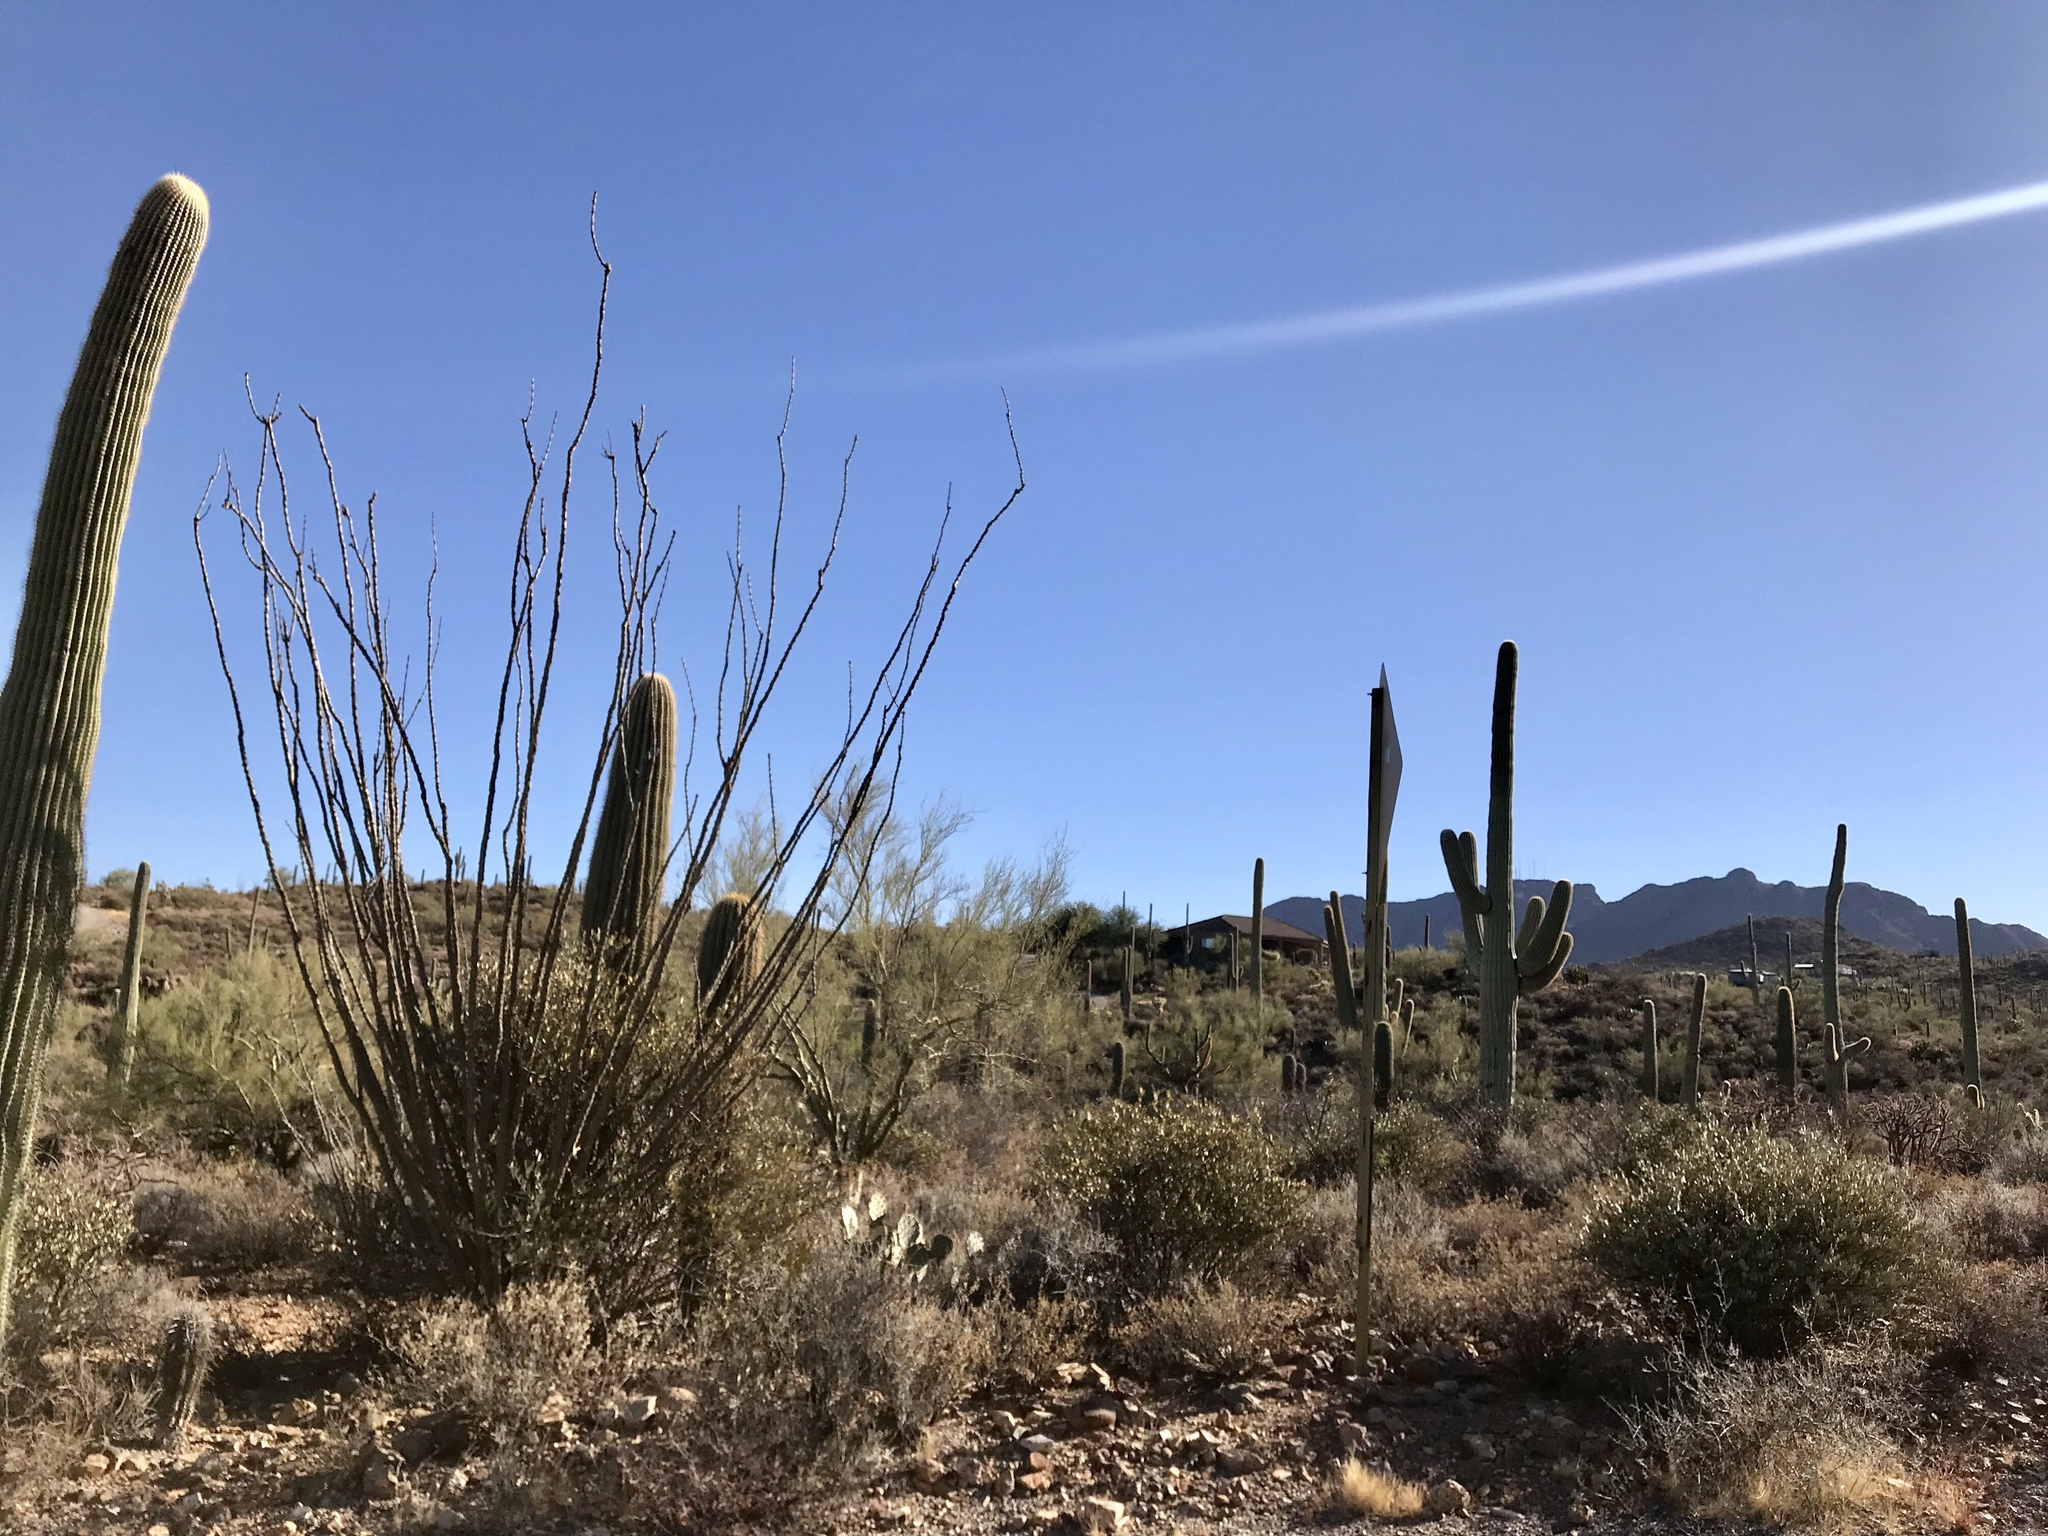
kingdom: Plantae
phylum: Tracheophyta
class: Magnoliopsida
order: Ericales
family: Fouquieriaceae
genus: Fouquieria
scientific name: Fouquieria splendens
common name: Vine-cactus
